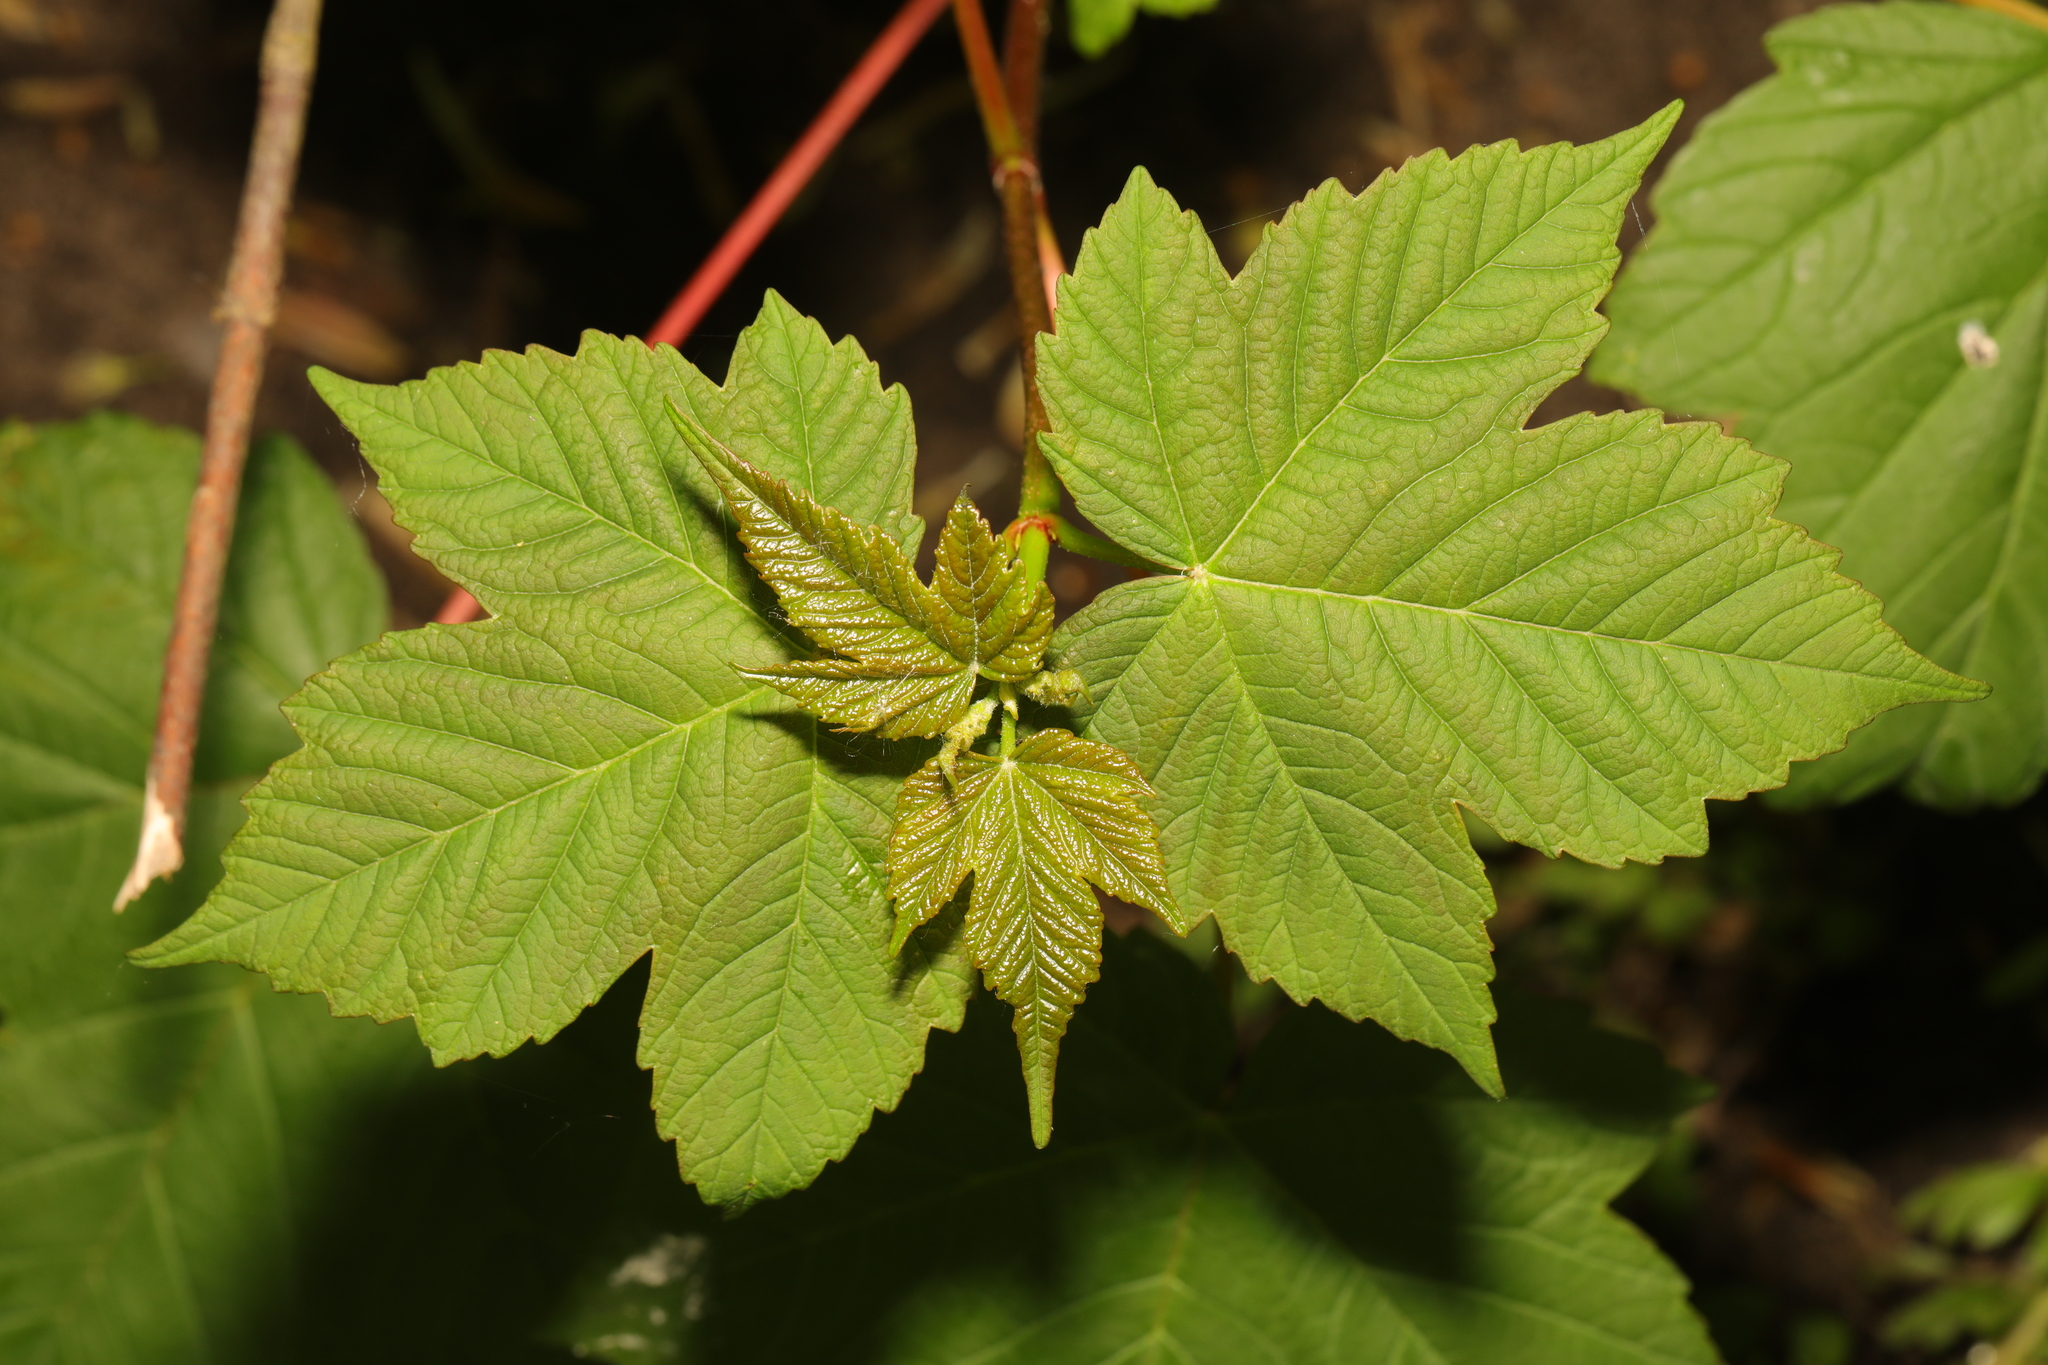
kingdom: Plantae
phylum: Tracheophyta
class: Magnoliopsida
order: Sapindales
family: Sapindaceae
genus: Acer
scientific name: Acer pseudoplatanus
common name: Sycamore
